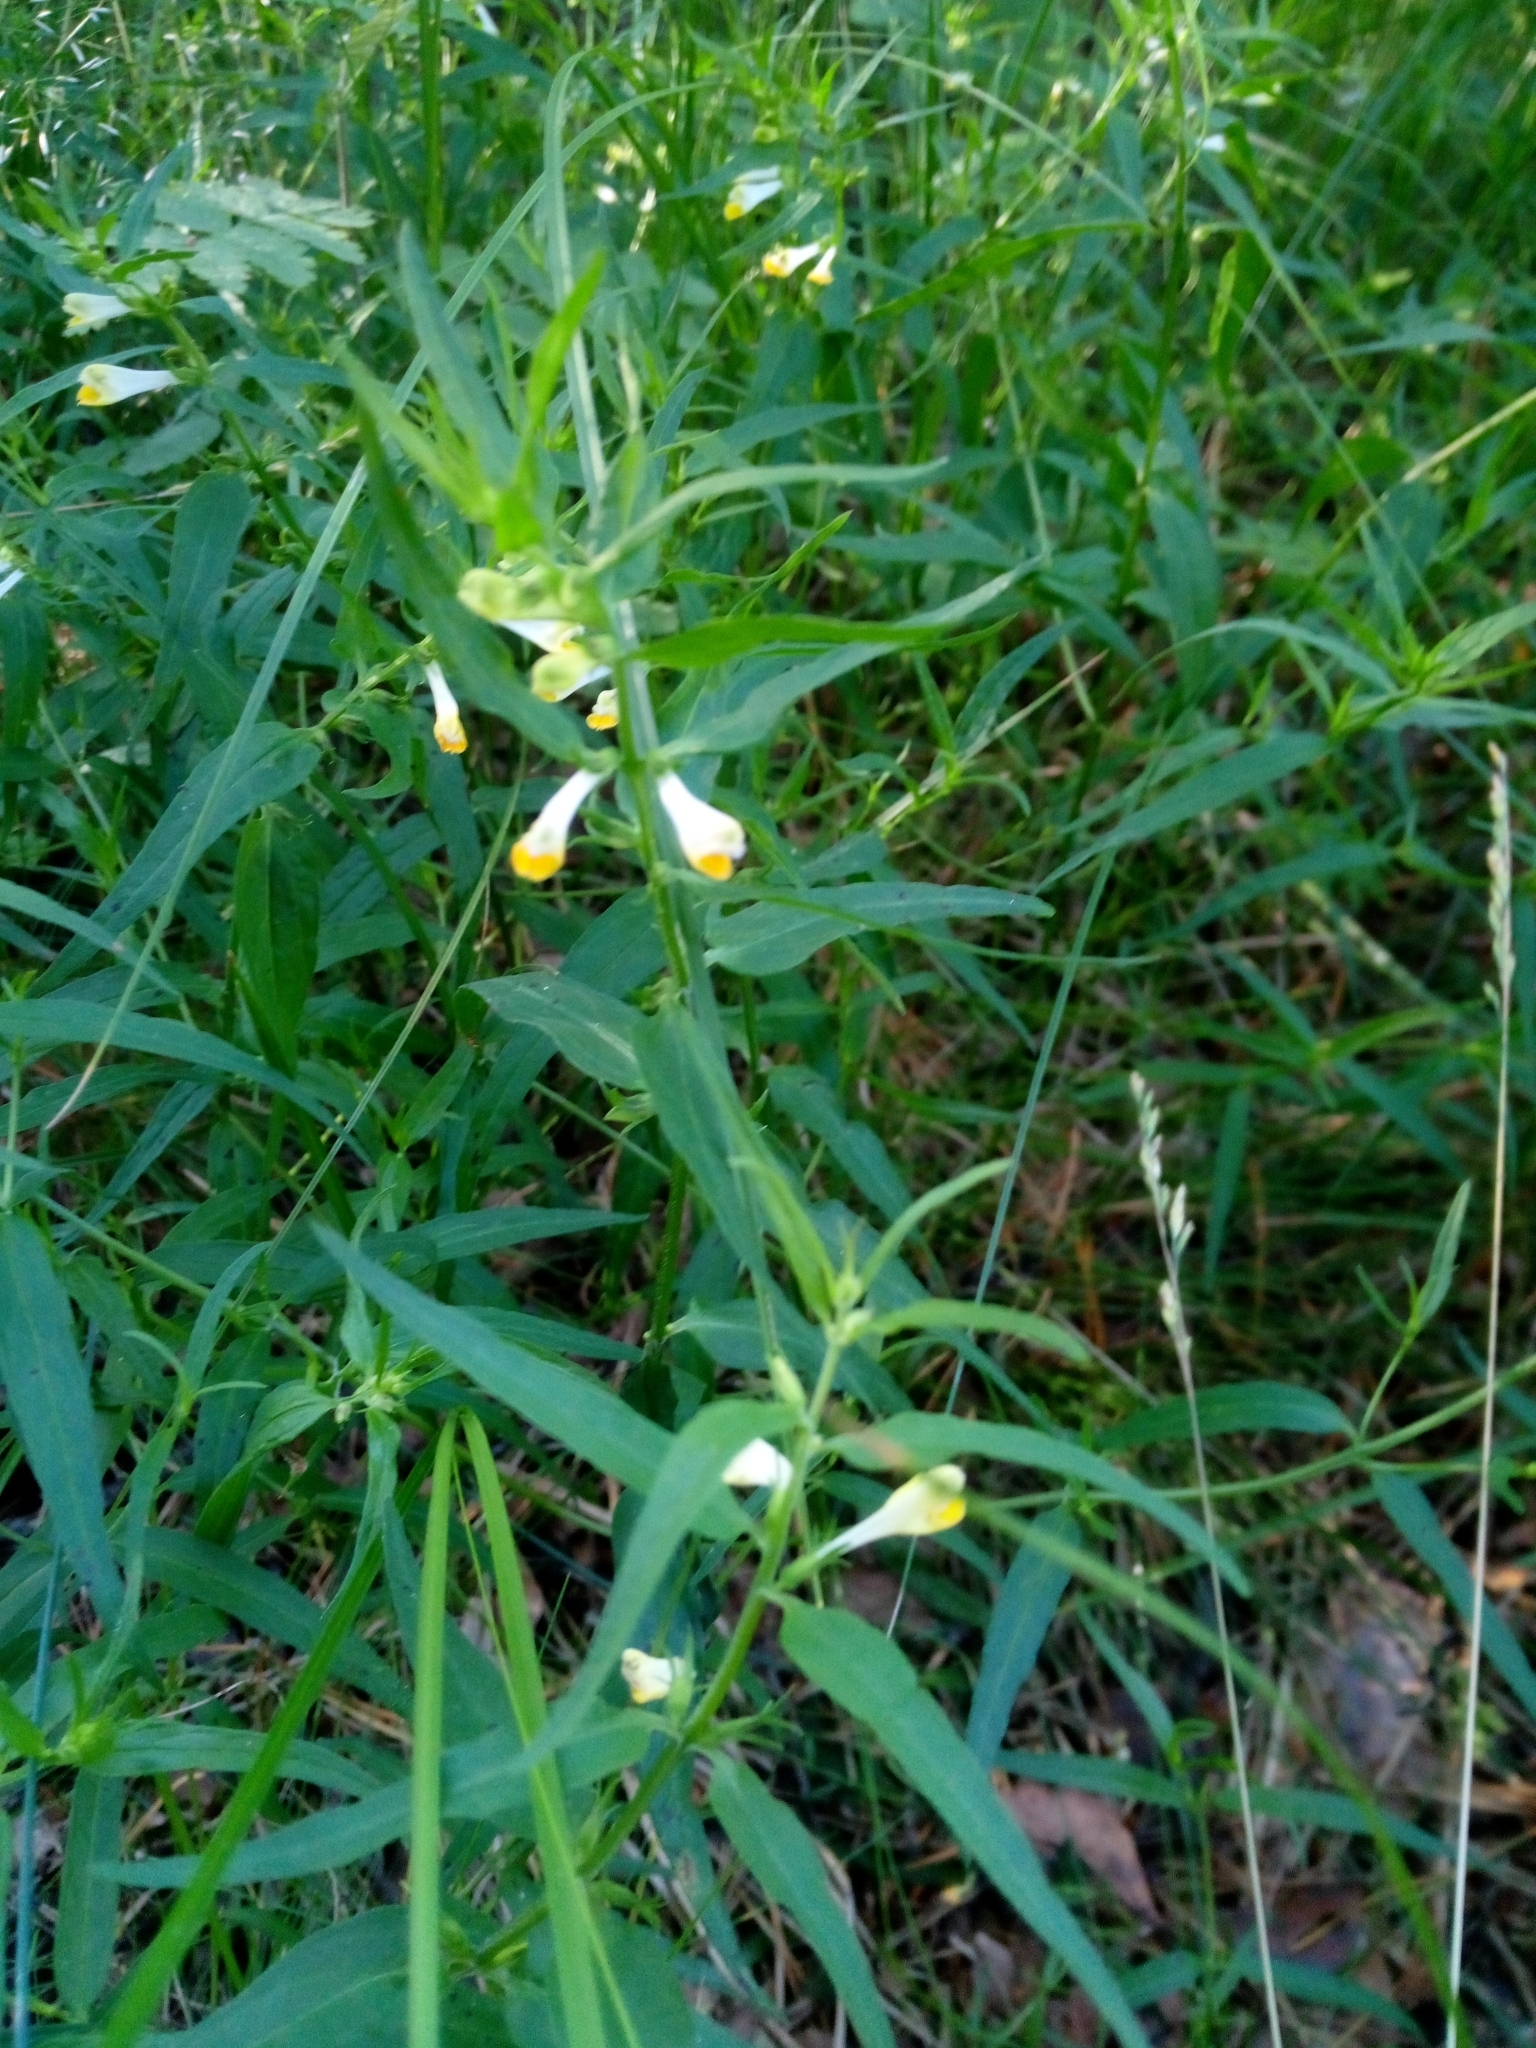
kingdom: Plantae
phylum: Tracheophyta
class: Magnoliopsida
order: Lamiales
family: Orobanchaceae
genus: Melampyrum
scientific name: Melampyrum pratense
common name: Common cow-wheat
